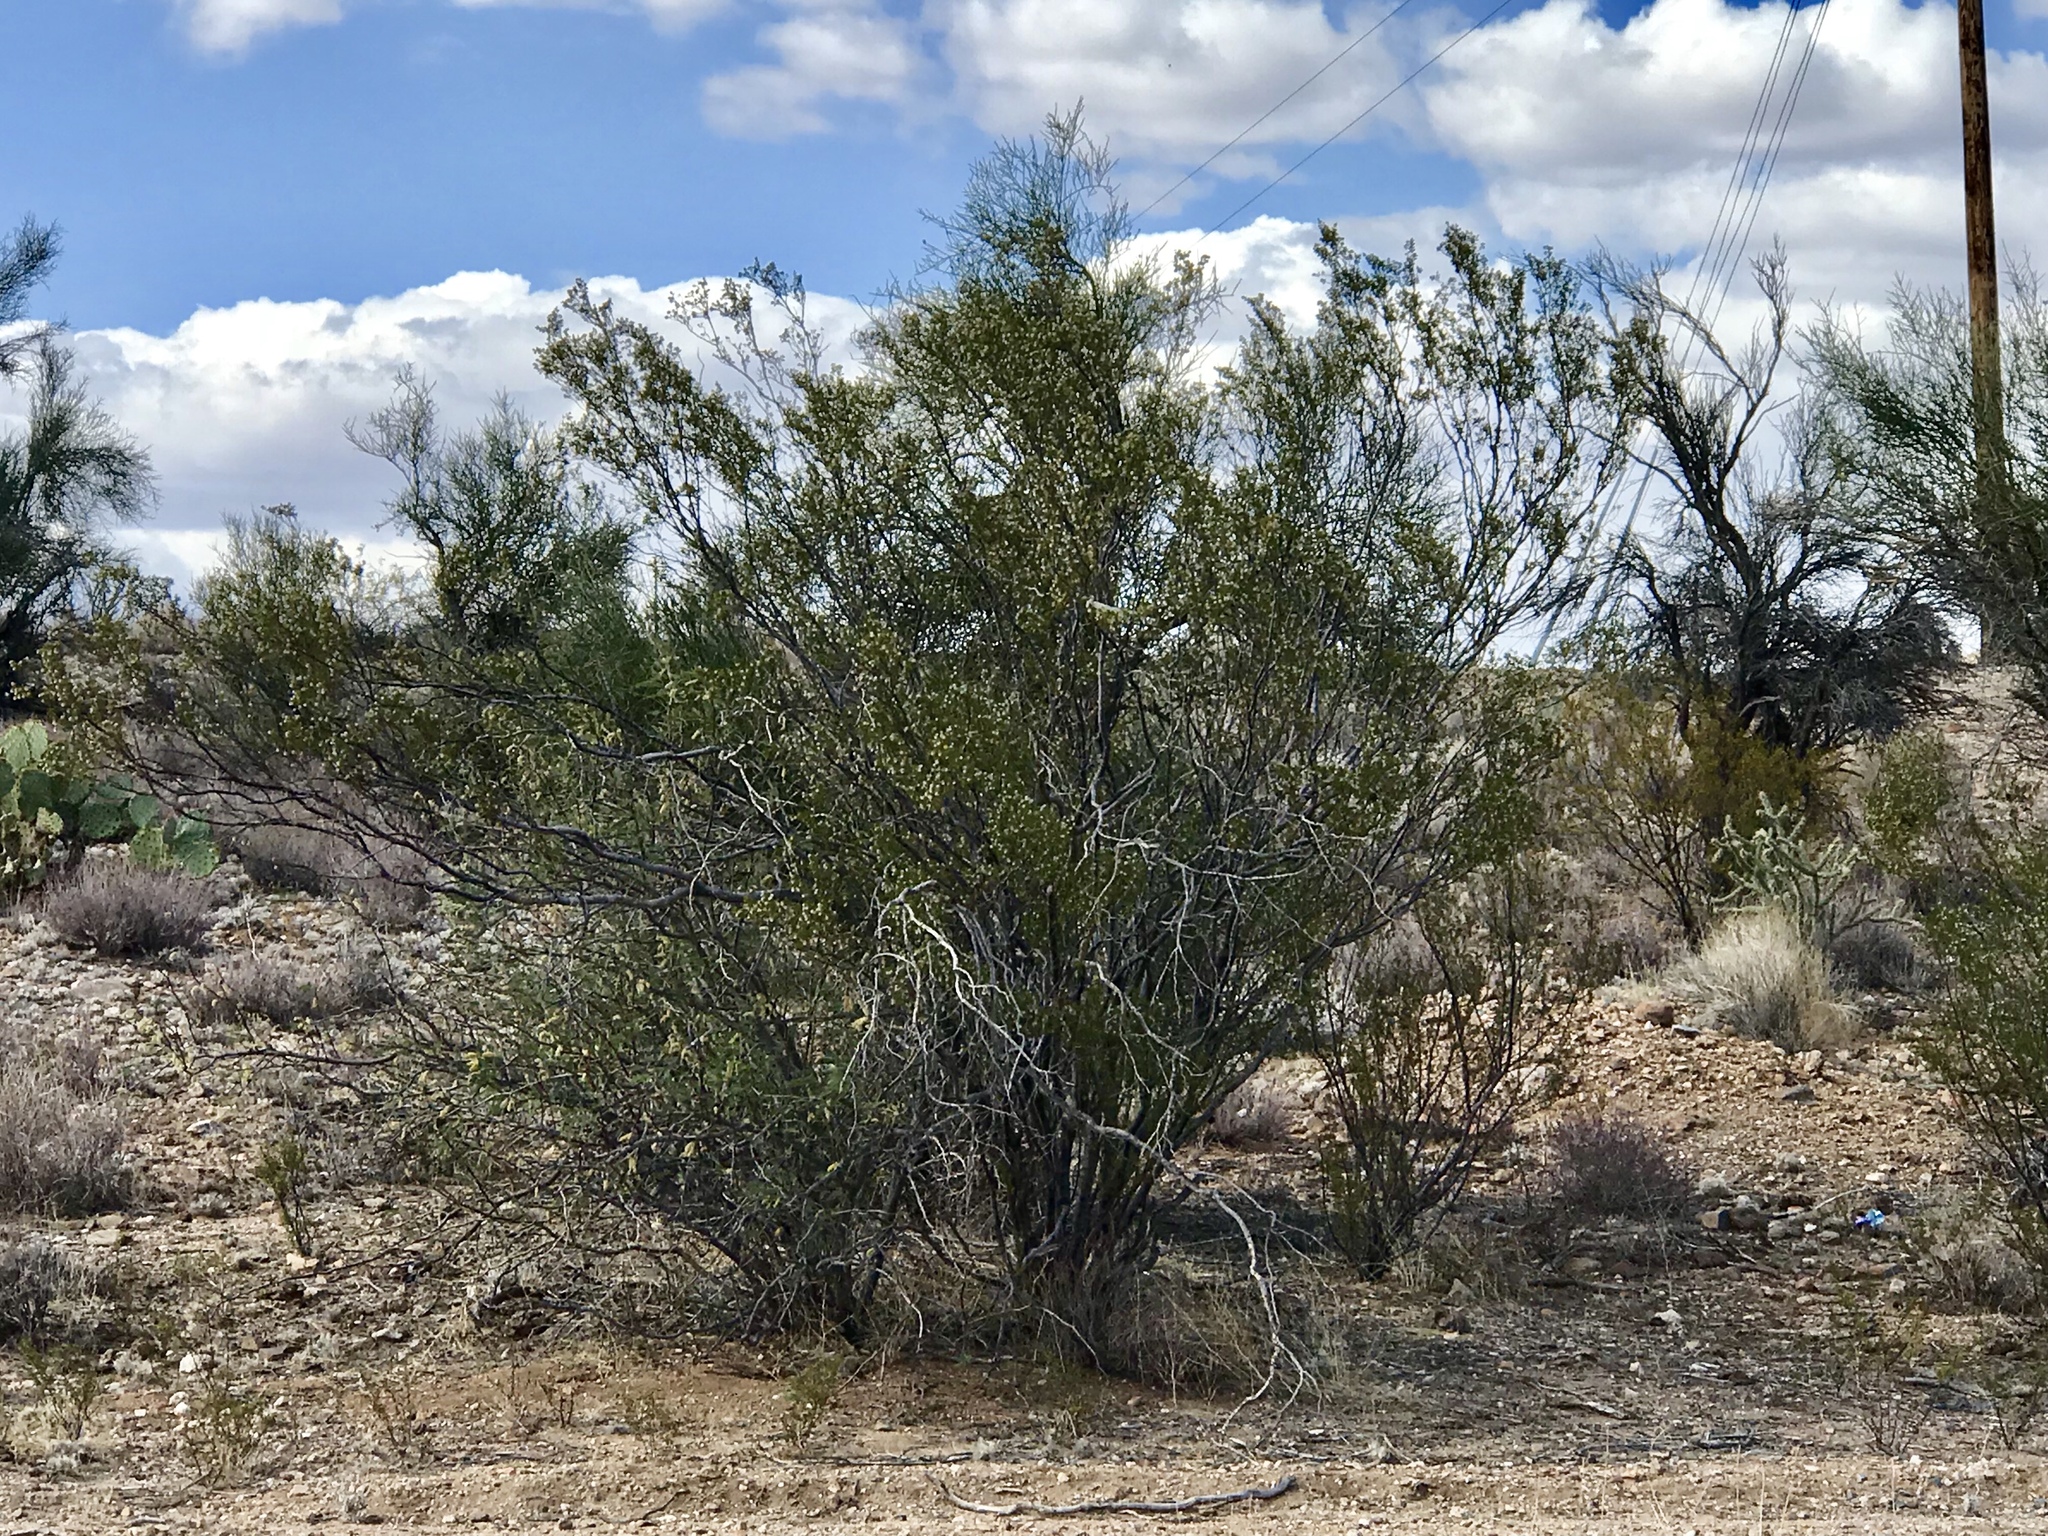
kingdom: Plantae
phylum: Tracheophyta
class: Magnoliopsida
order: Zygophyllales
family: Zygophyllaceae
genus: Larrea
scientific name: Larrea tridentata
